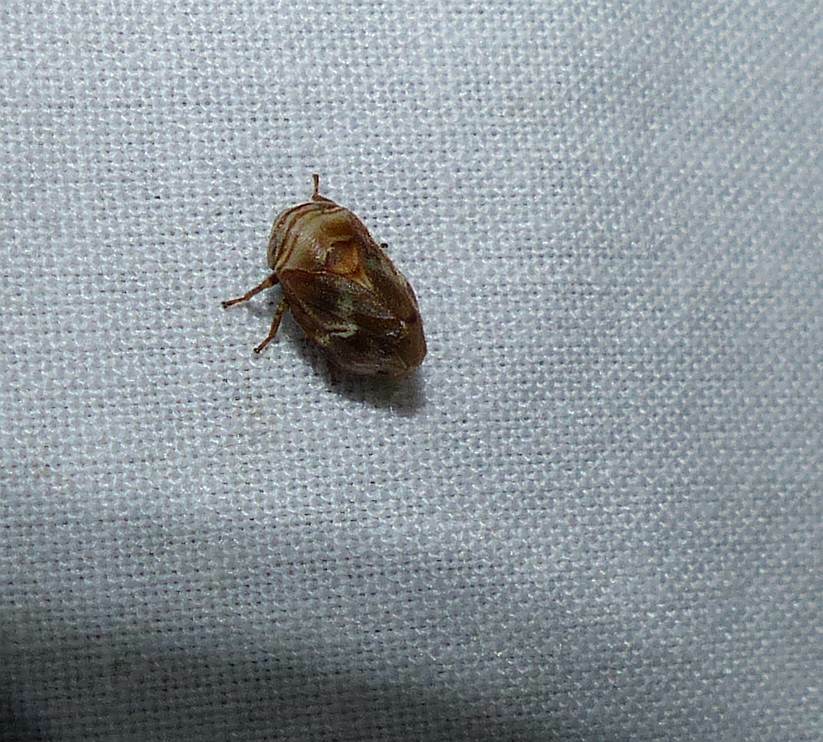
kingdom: Animalia
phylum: Arthropoda
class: Insecta
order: Hemiptera
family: Clastopteridae
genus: Clastoptera
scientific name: Clastoptera obtusa
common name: Alder spittlebug
